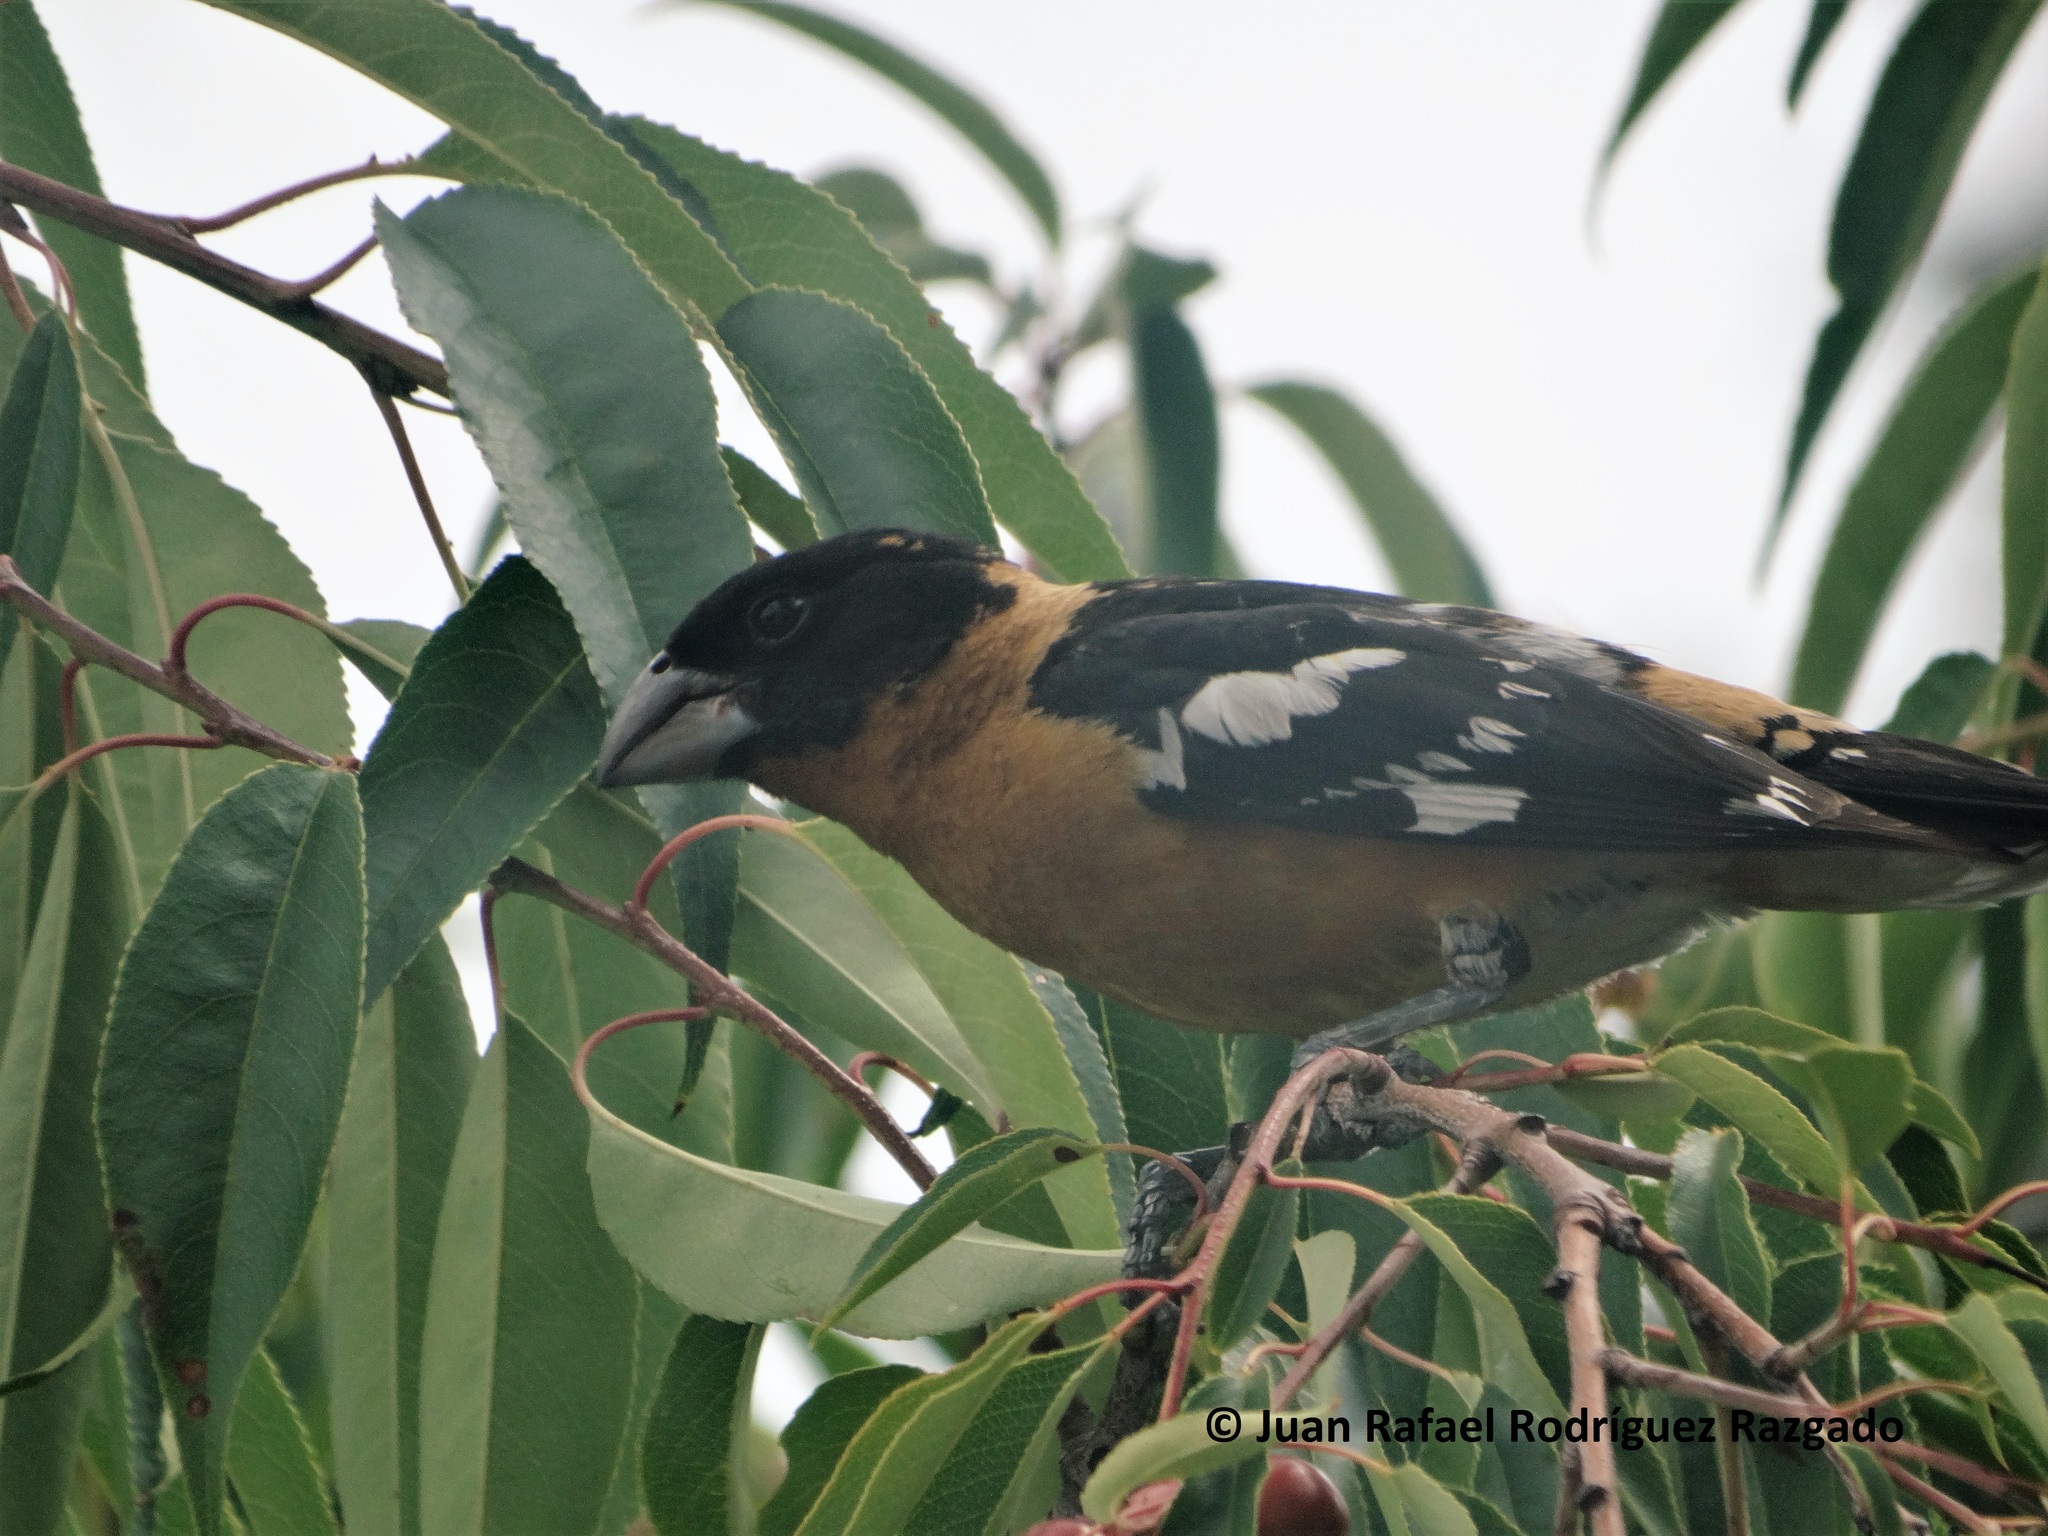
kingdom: Animalia
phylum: Chordata
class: Aves
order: Passeriformes
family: Cardinalidae
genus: Pheucticus
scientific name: Pheucticus melanocephalus
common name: Black-headed grosbeak
